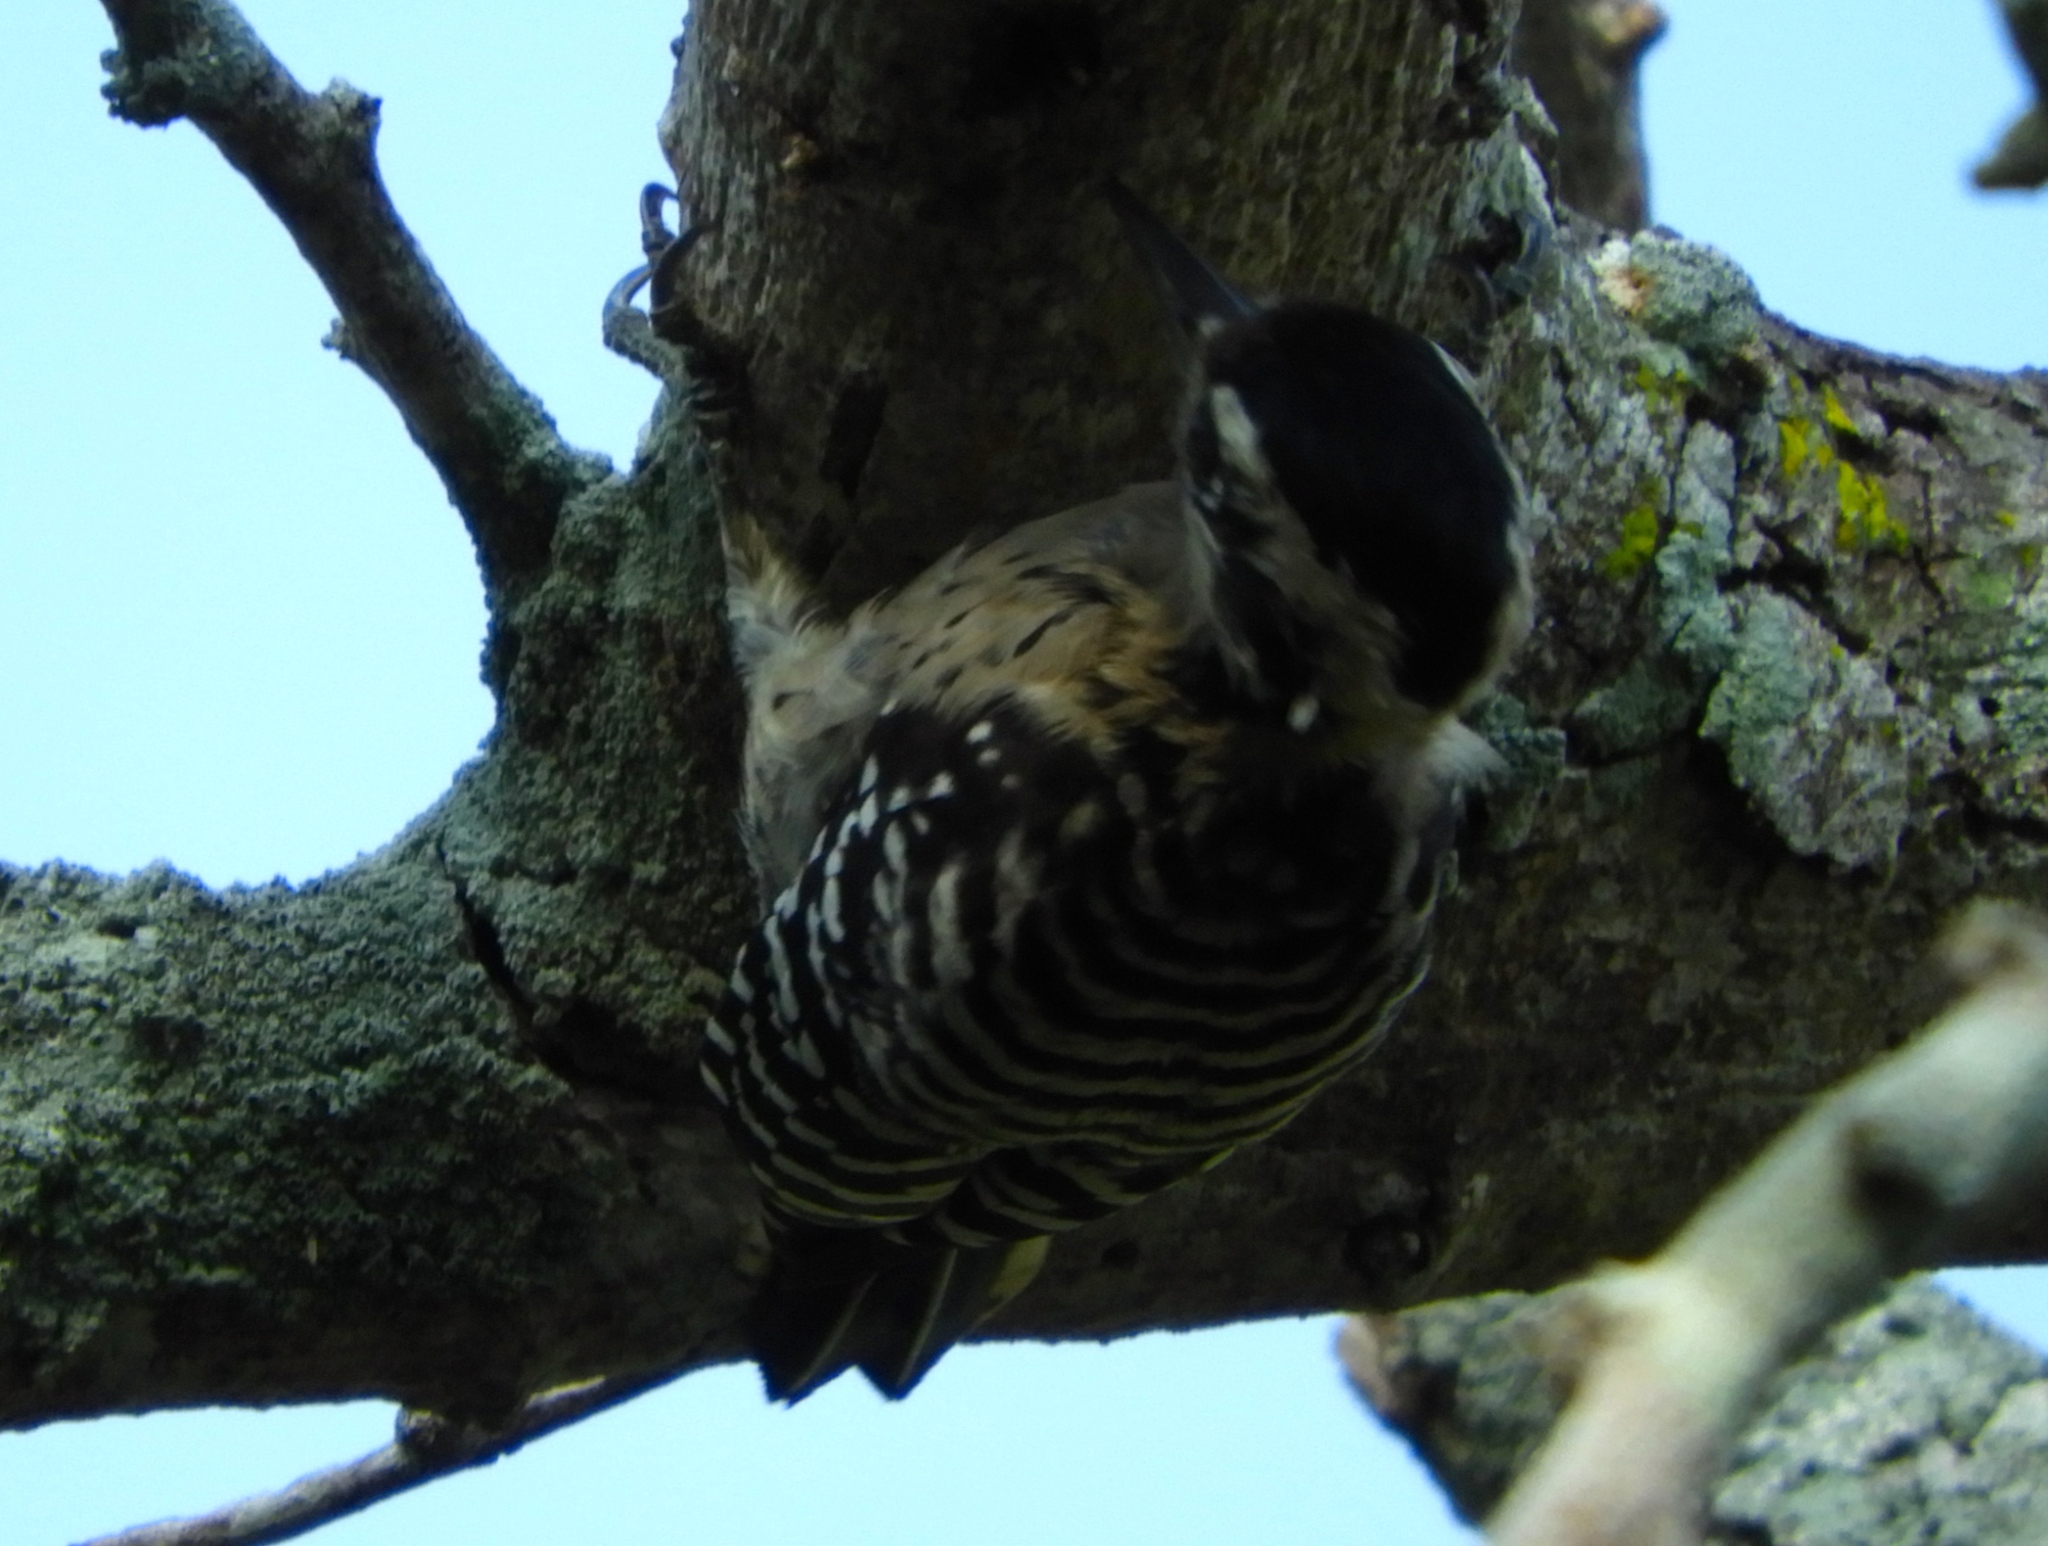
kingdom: Animalia
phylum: Chordata
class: Aves
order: Piciformes
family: Picidae
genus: Dryobates
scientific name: Dryobates scalaris
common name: Ladder-backed woodpecker
